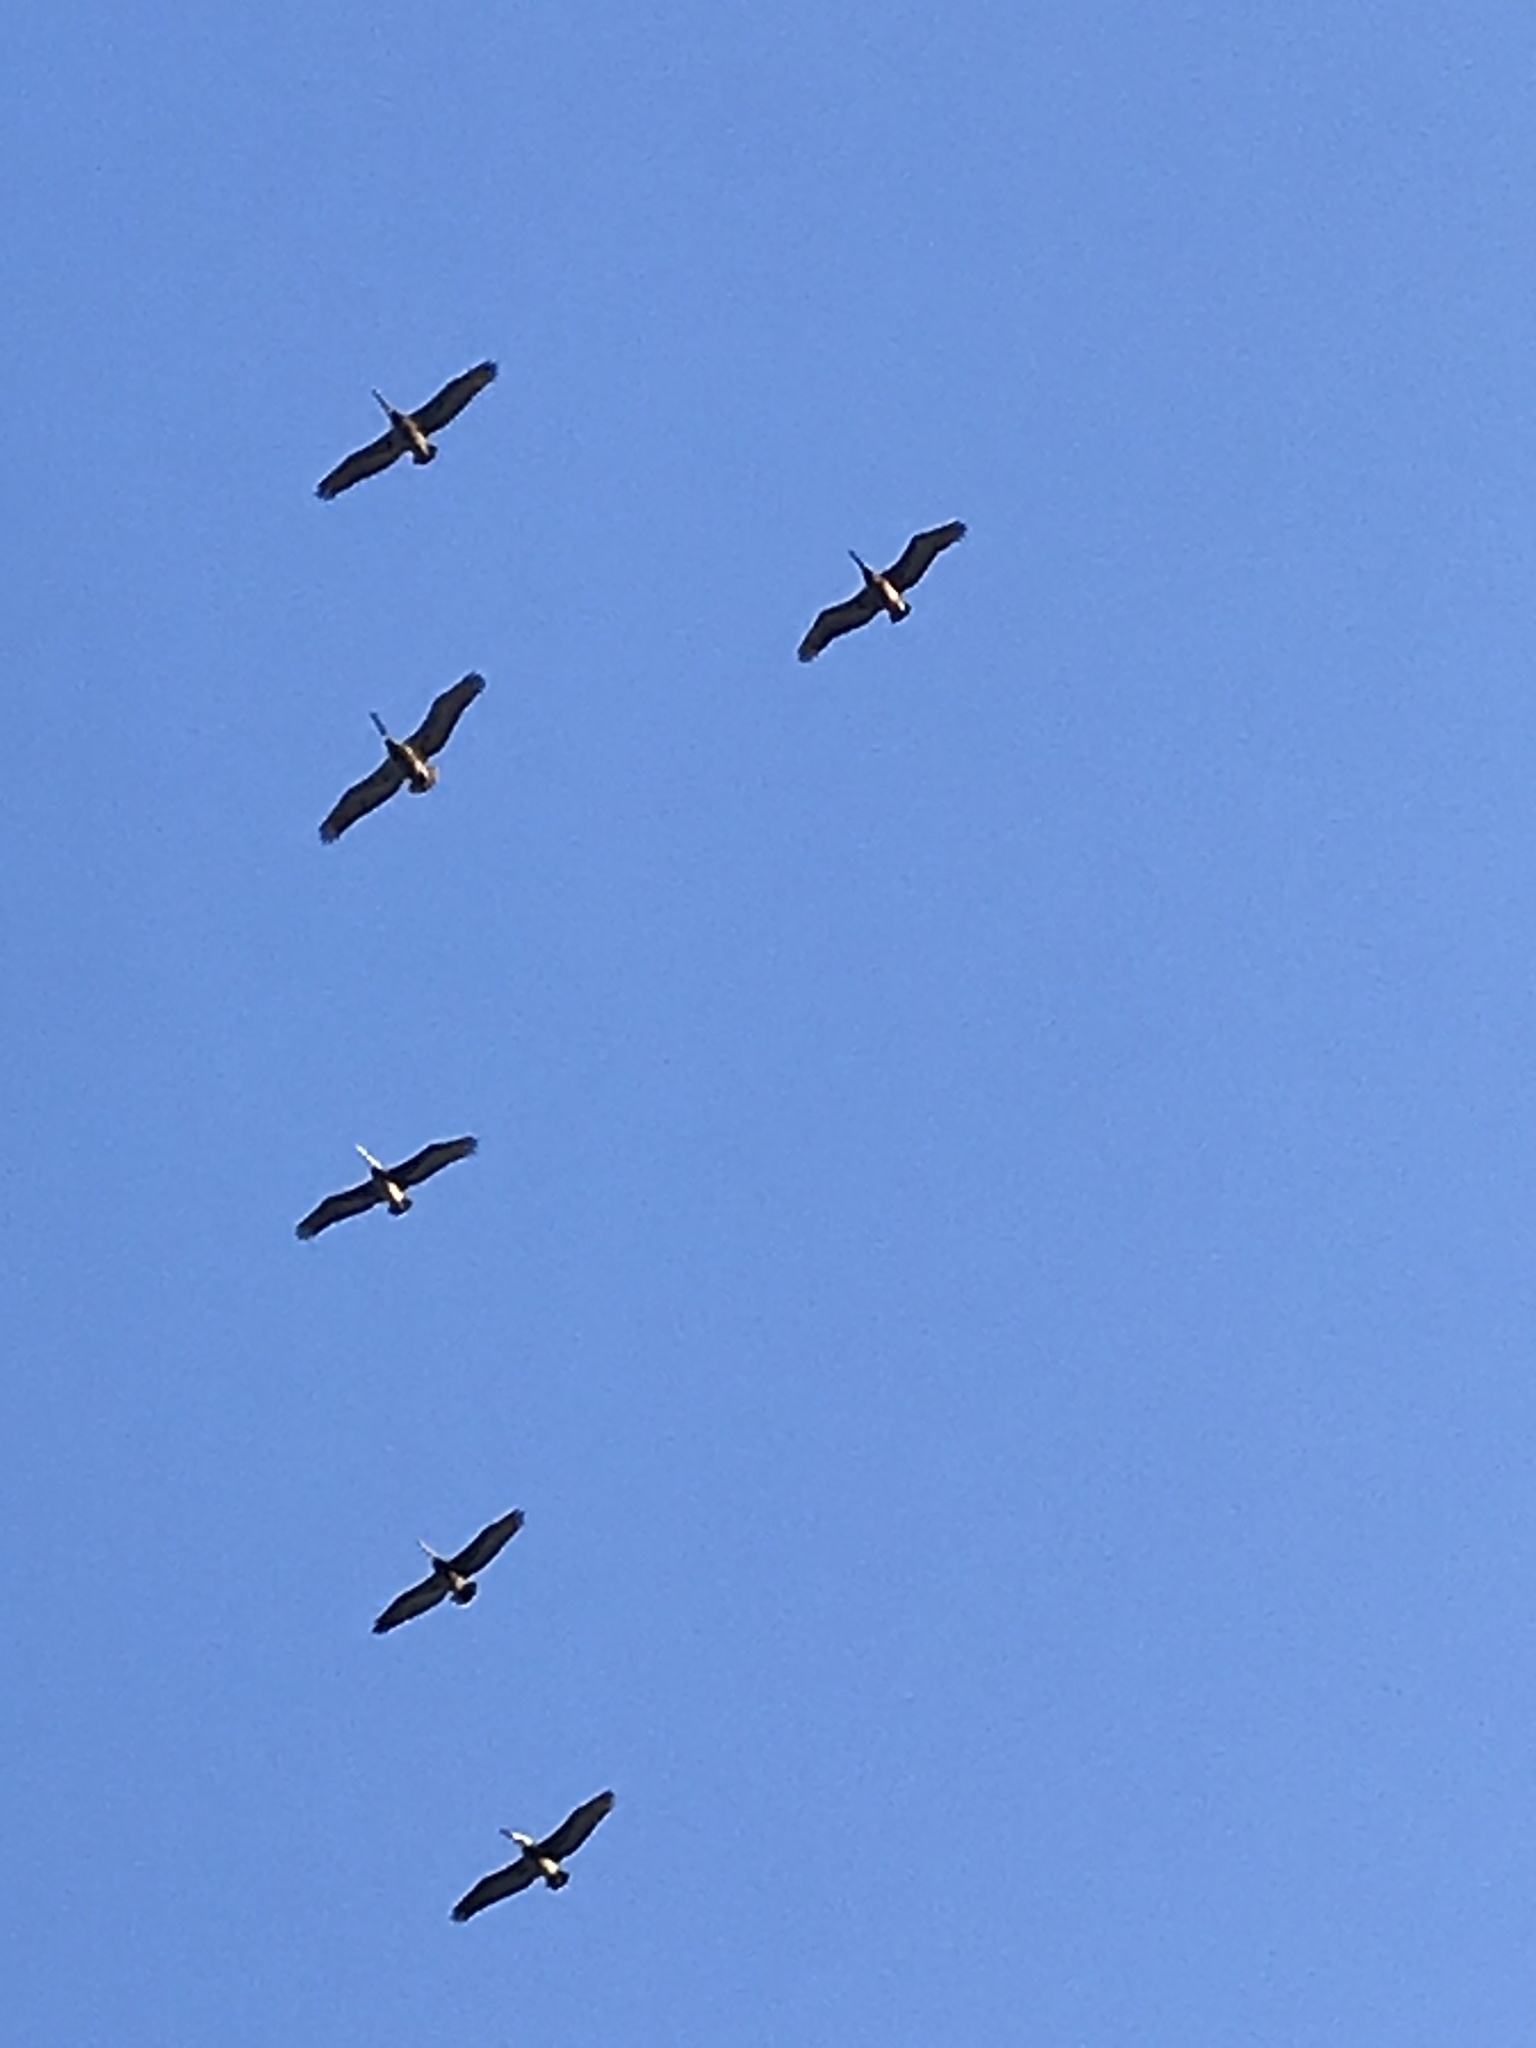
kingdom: Animalia
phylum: Chordata
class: Aves
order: Pelecaniformes
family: Pelecanidae
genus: Pelecanus
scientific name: Pelecanus occidentalis
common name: Brown pelican
